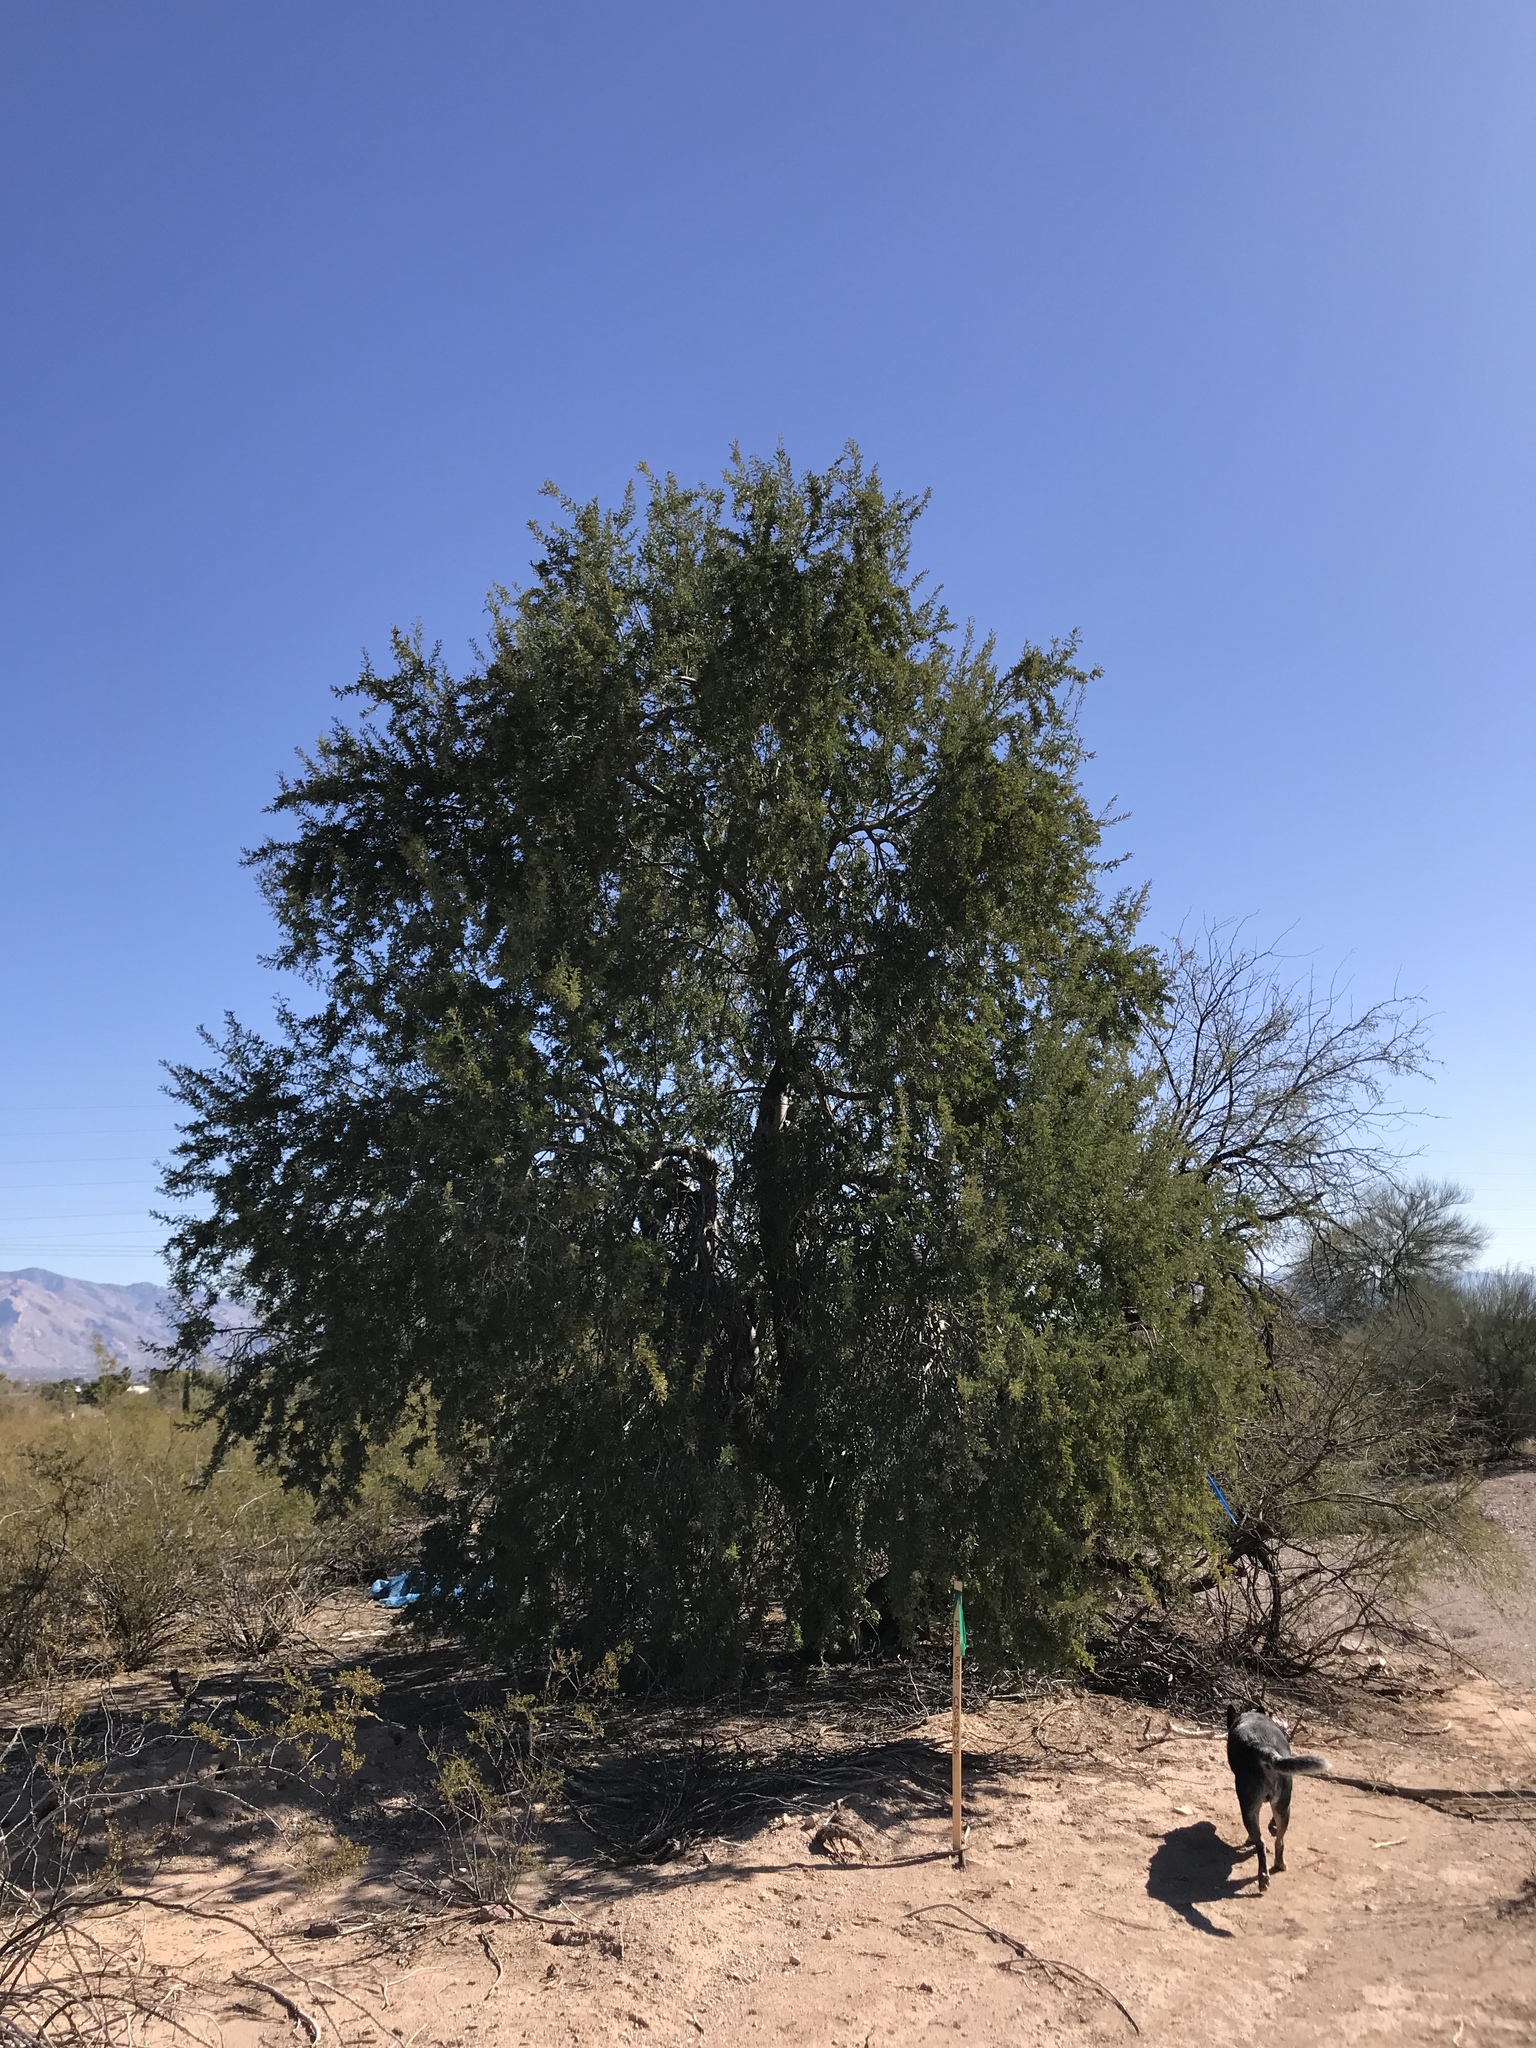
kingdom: Plantae
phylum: Tracheophyta
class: Magnoliopsida
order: Fabales
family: Fabaceae
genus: Olneya
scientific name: Olneya tesota
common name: Desert ironwood
